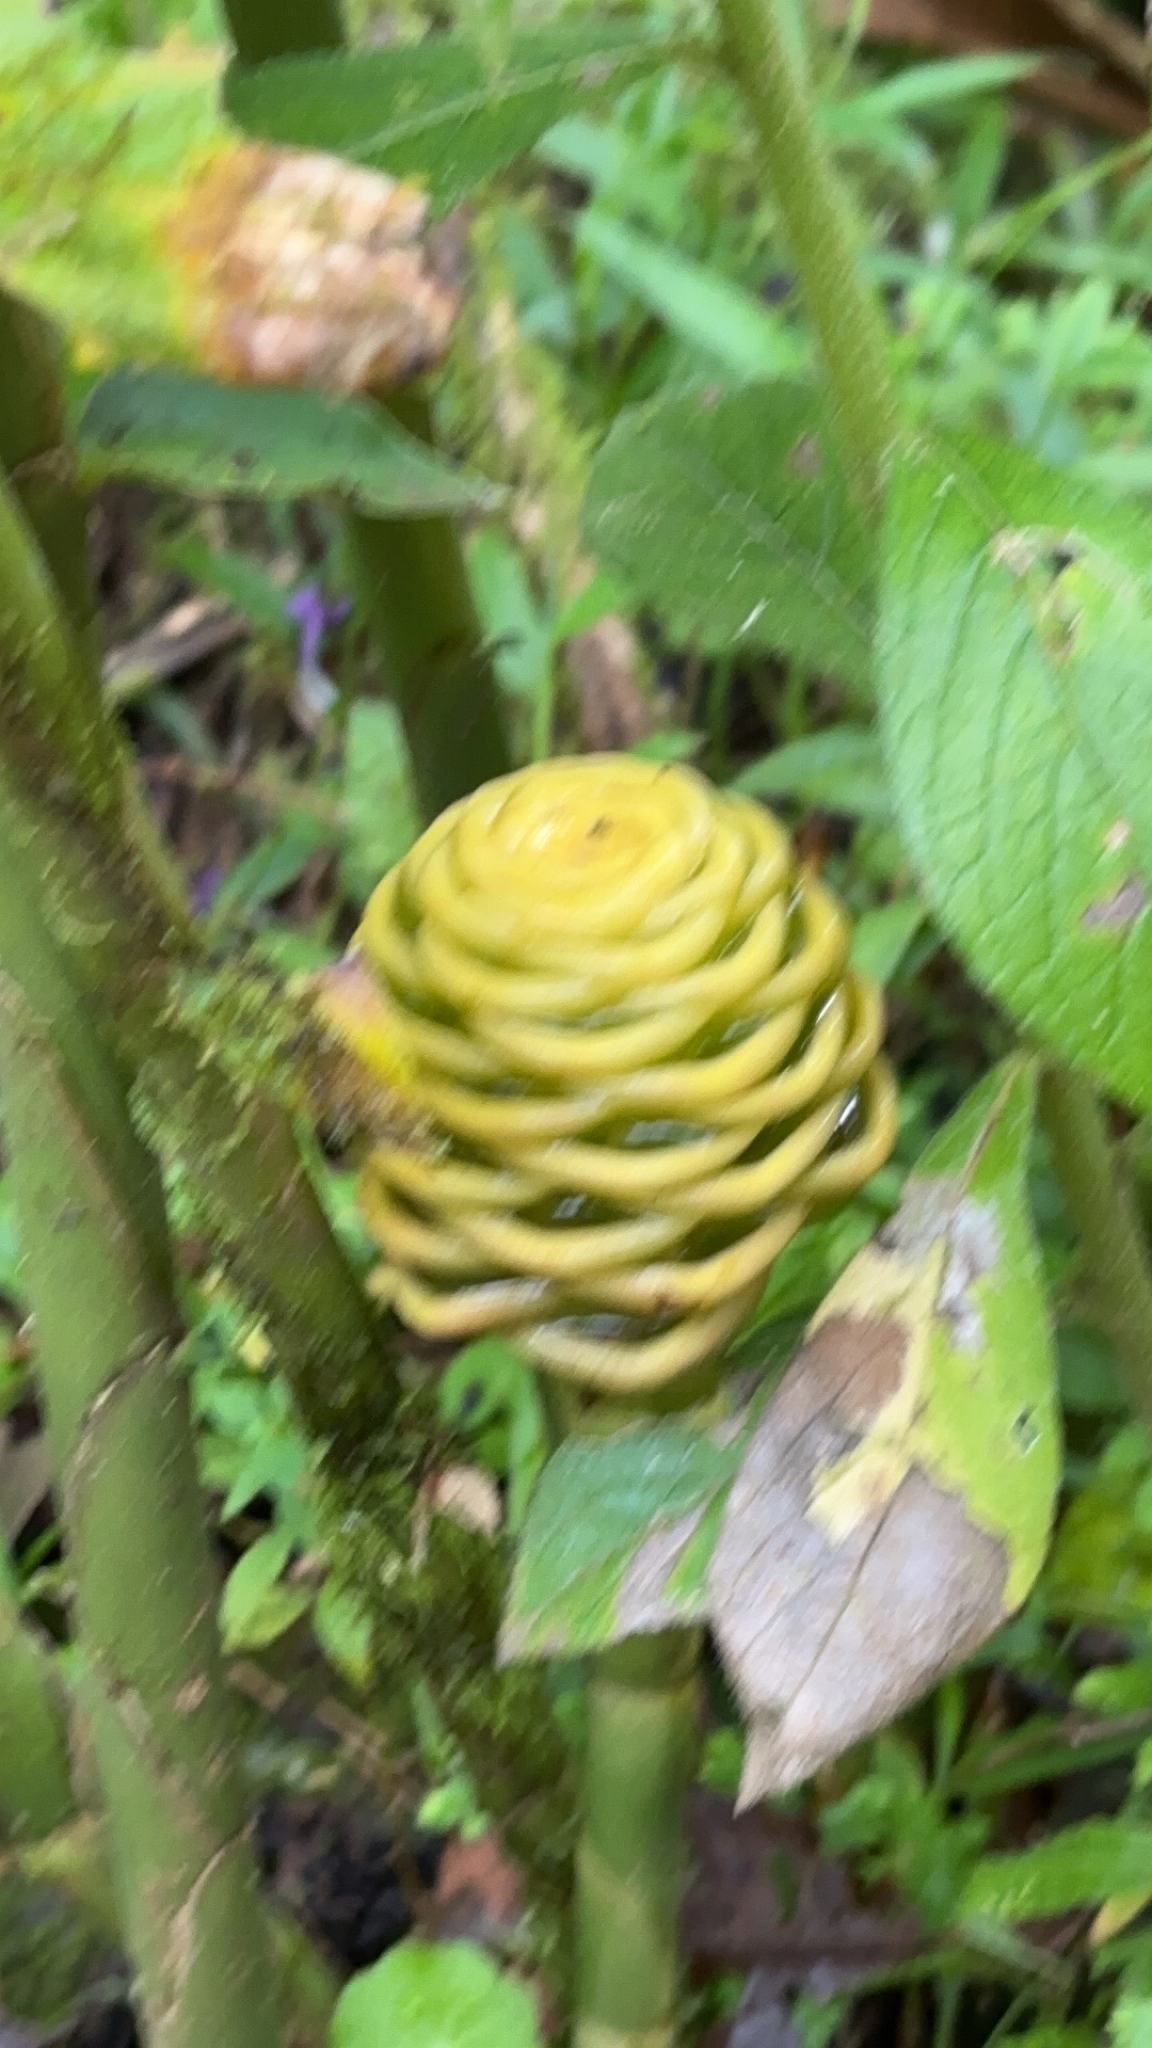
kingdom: Plantae
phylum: Tracheophyta
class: Liliopsida
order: Zingiberales
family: Zingiberaceae
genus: Zingiber
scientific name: Zingiber spectabile
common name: Beehive ginger
